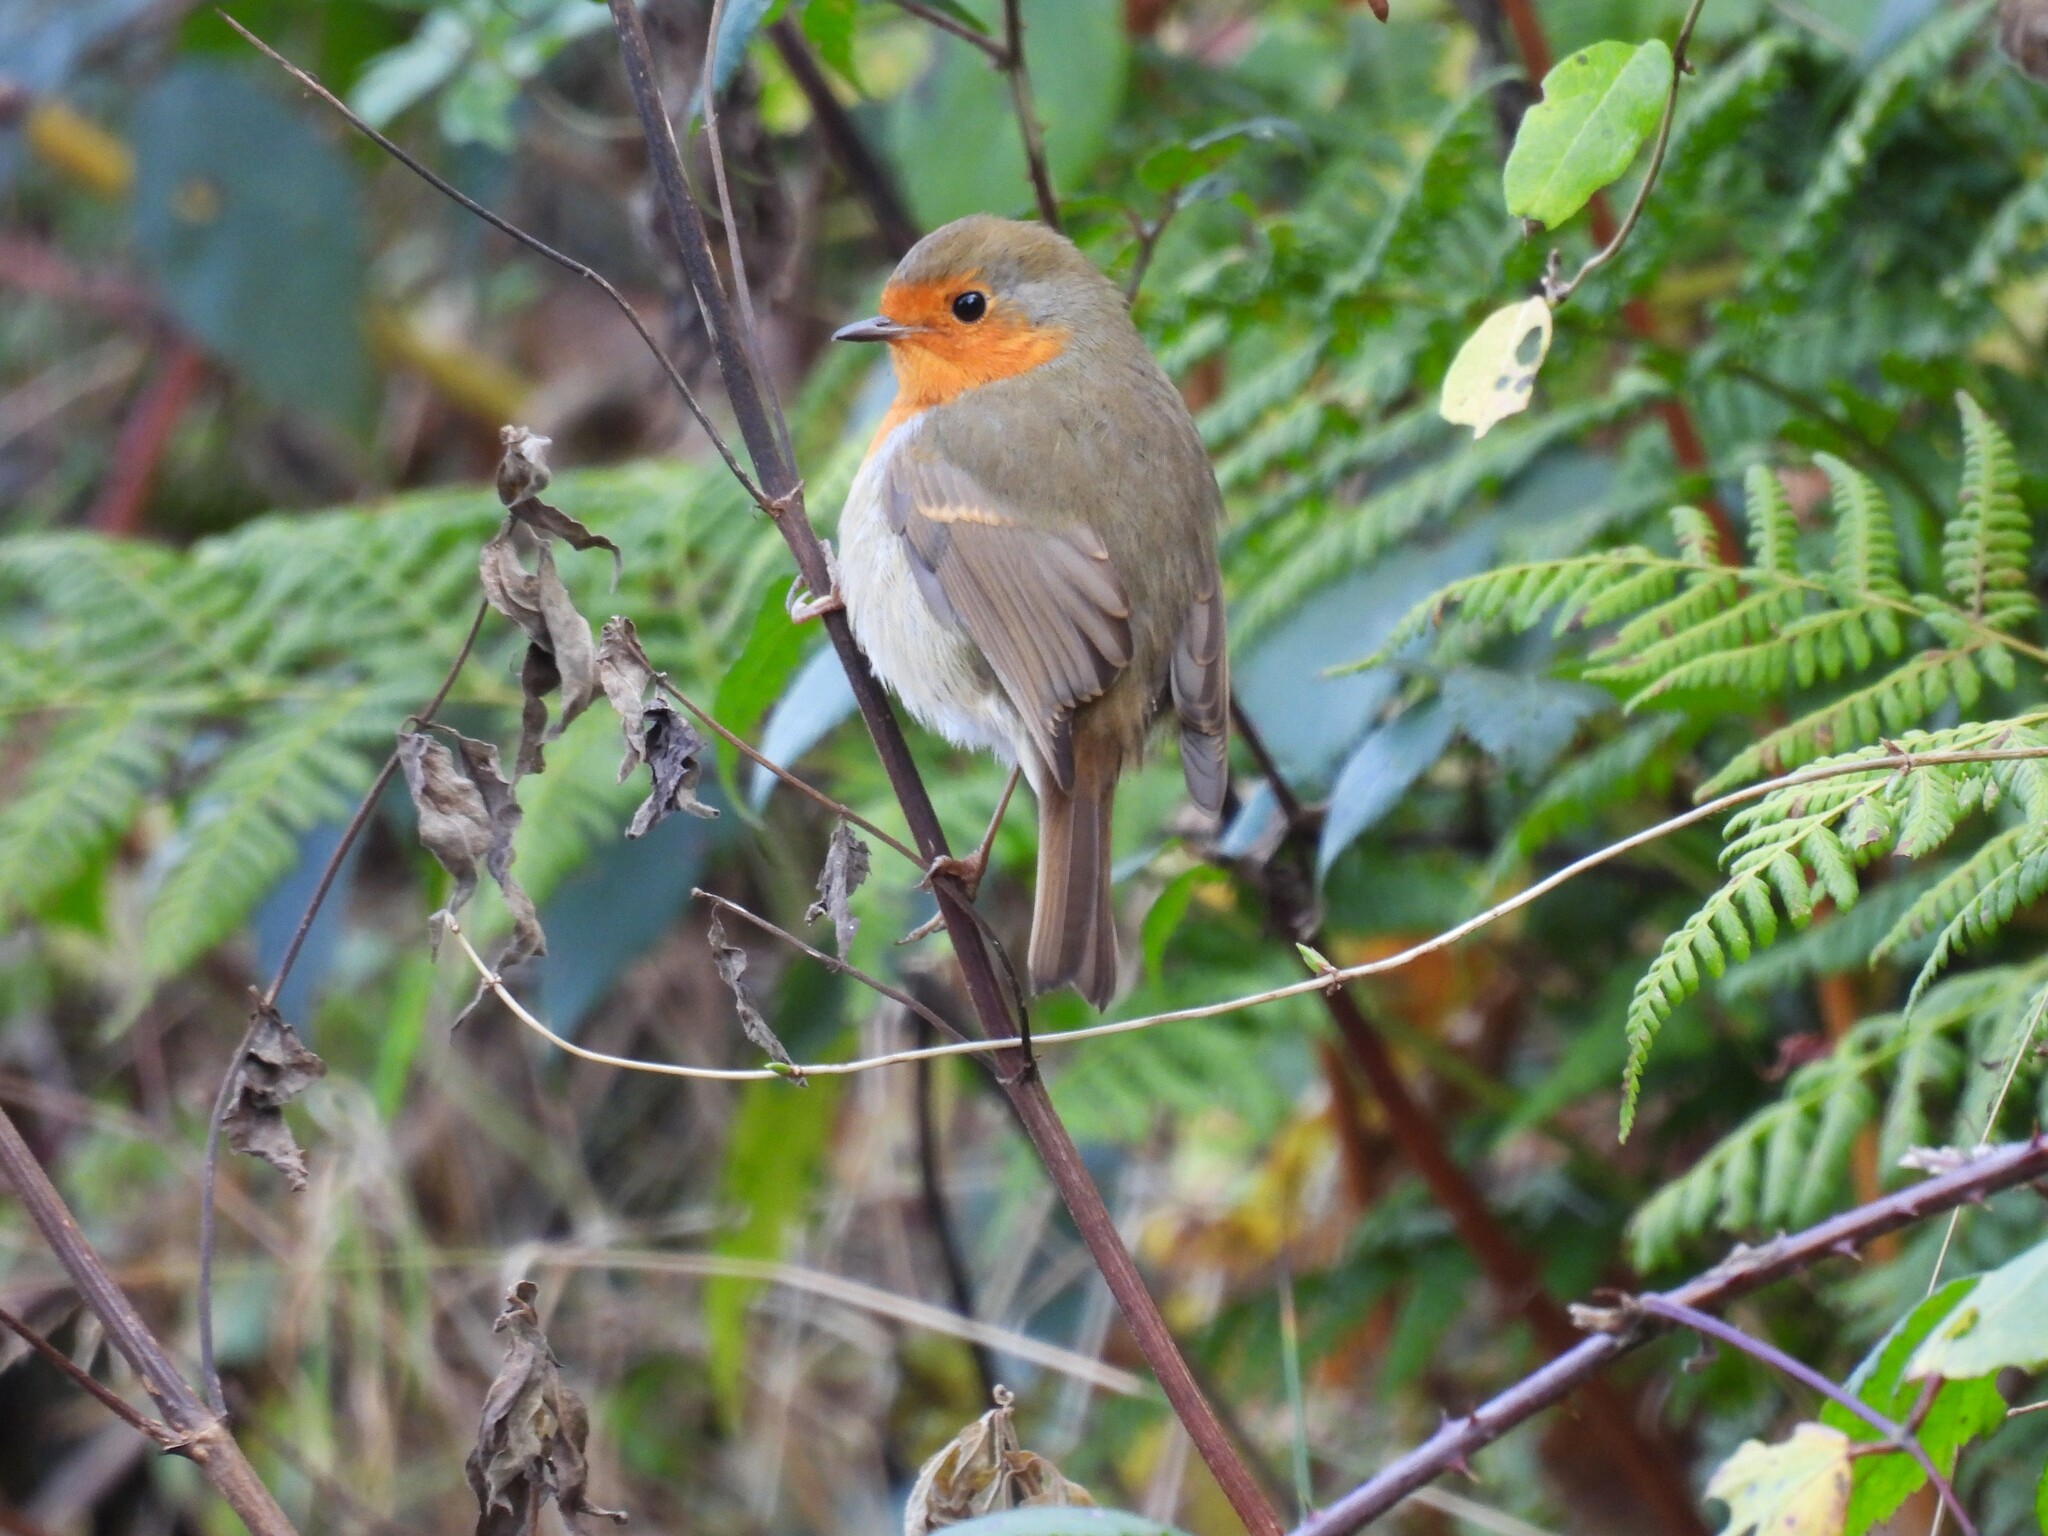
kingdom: Animalia
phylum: Chordata
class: Aves
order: Passeriformes
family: Muscicapidae
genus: Erithacus
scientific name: Erithacus rubecula
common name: European robin
